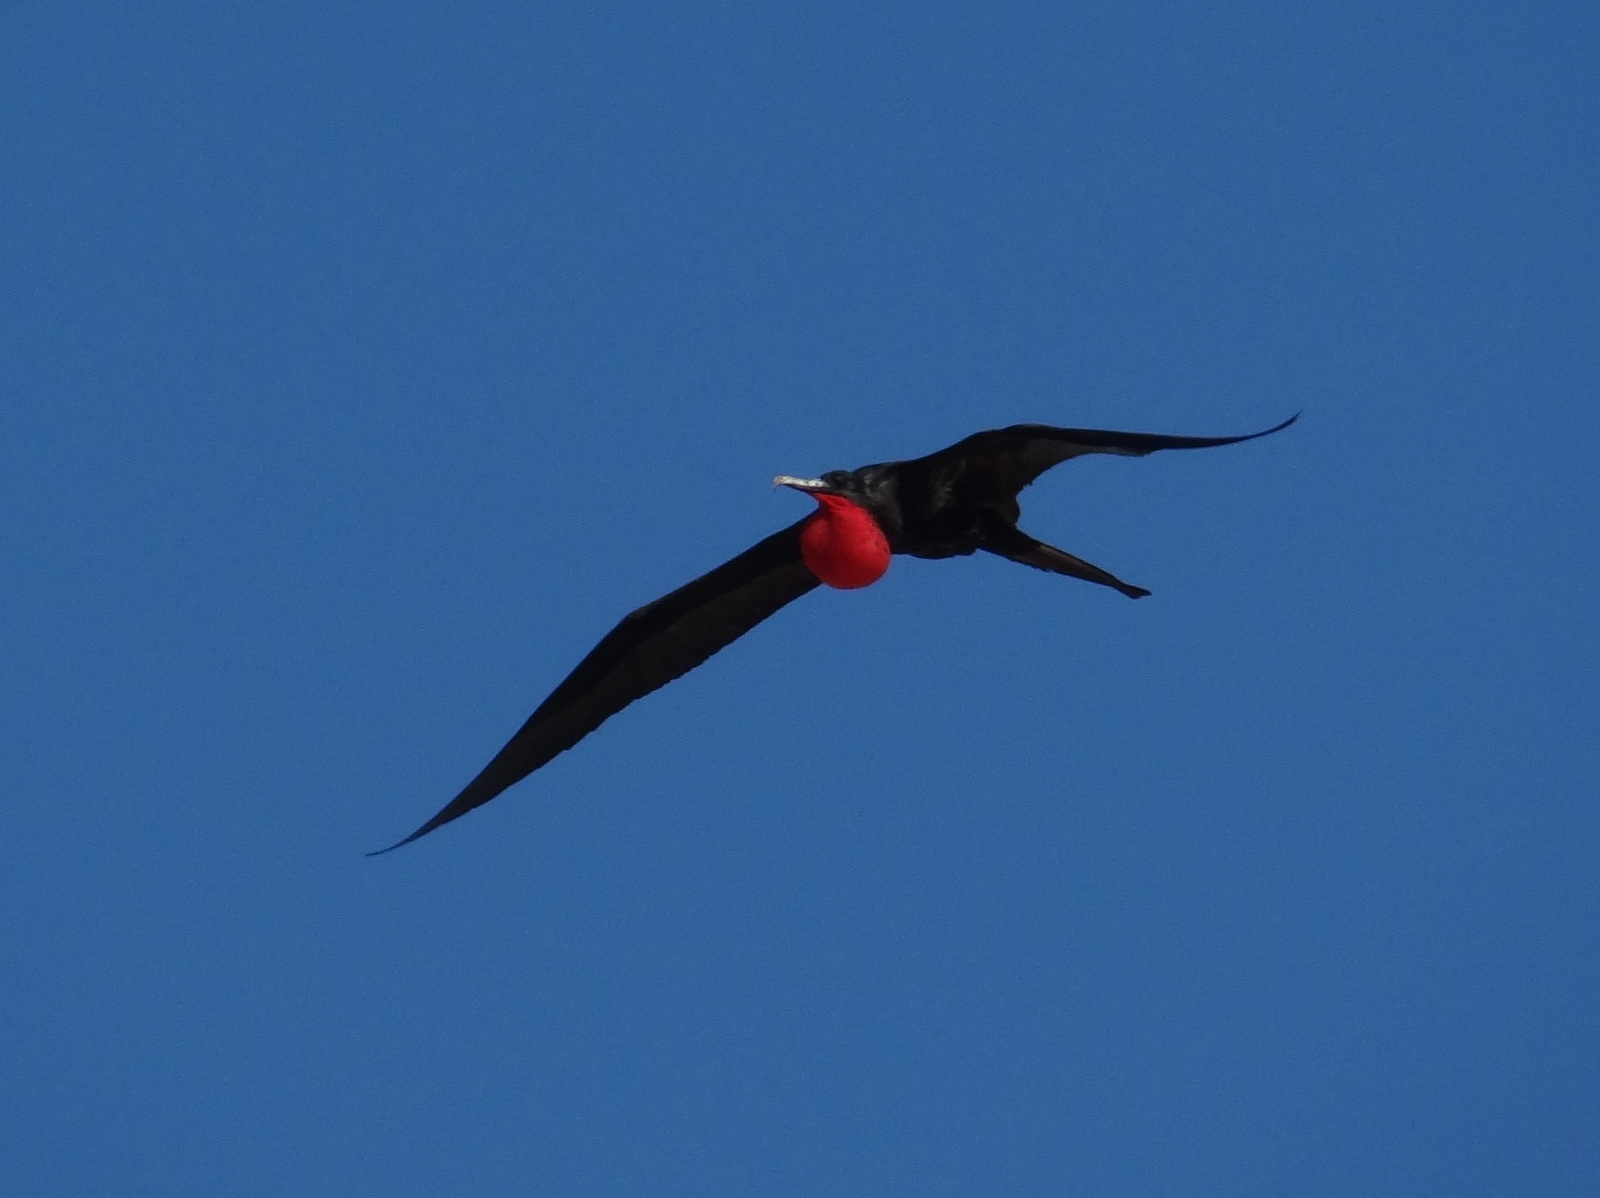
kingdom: Animalia
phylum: Chordata
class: Aves
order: Suliformes
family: Fregatidae
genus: Fregata
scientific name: Fregata minor
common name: Great frigatebird
